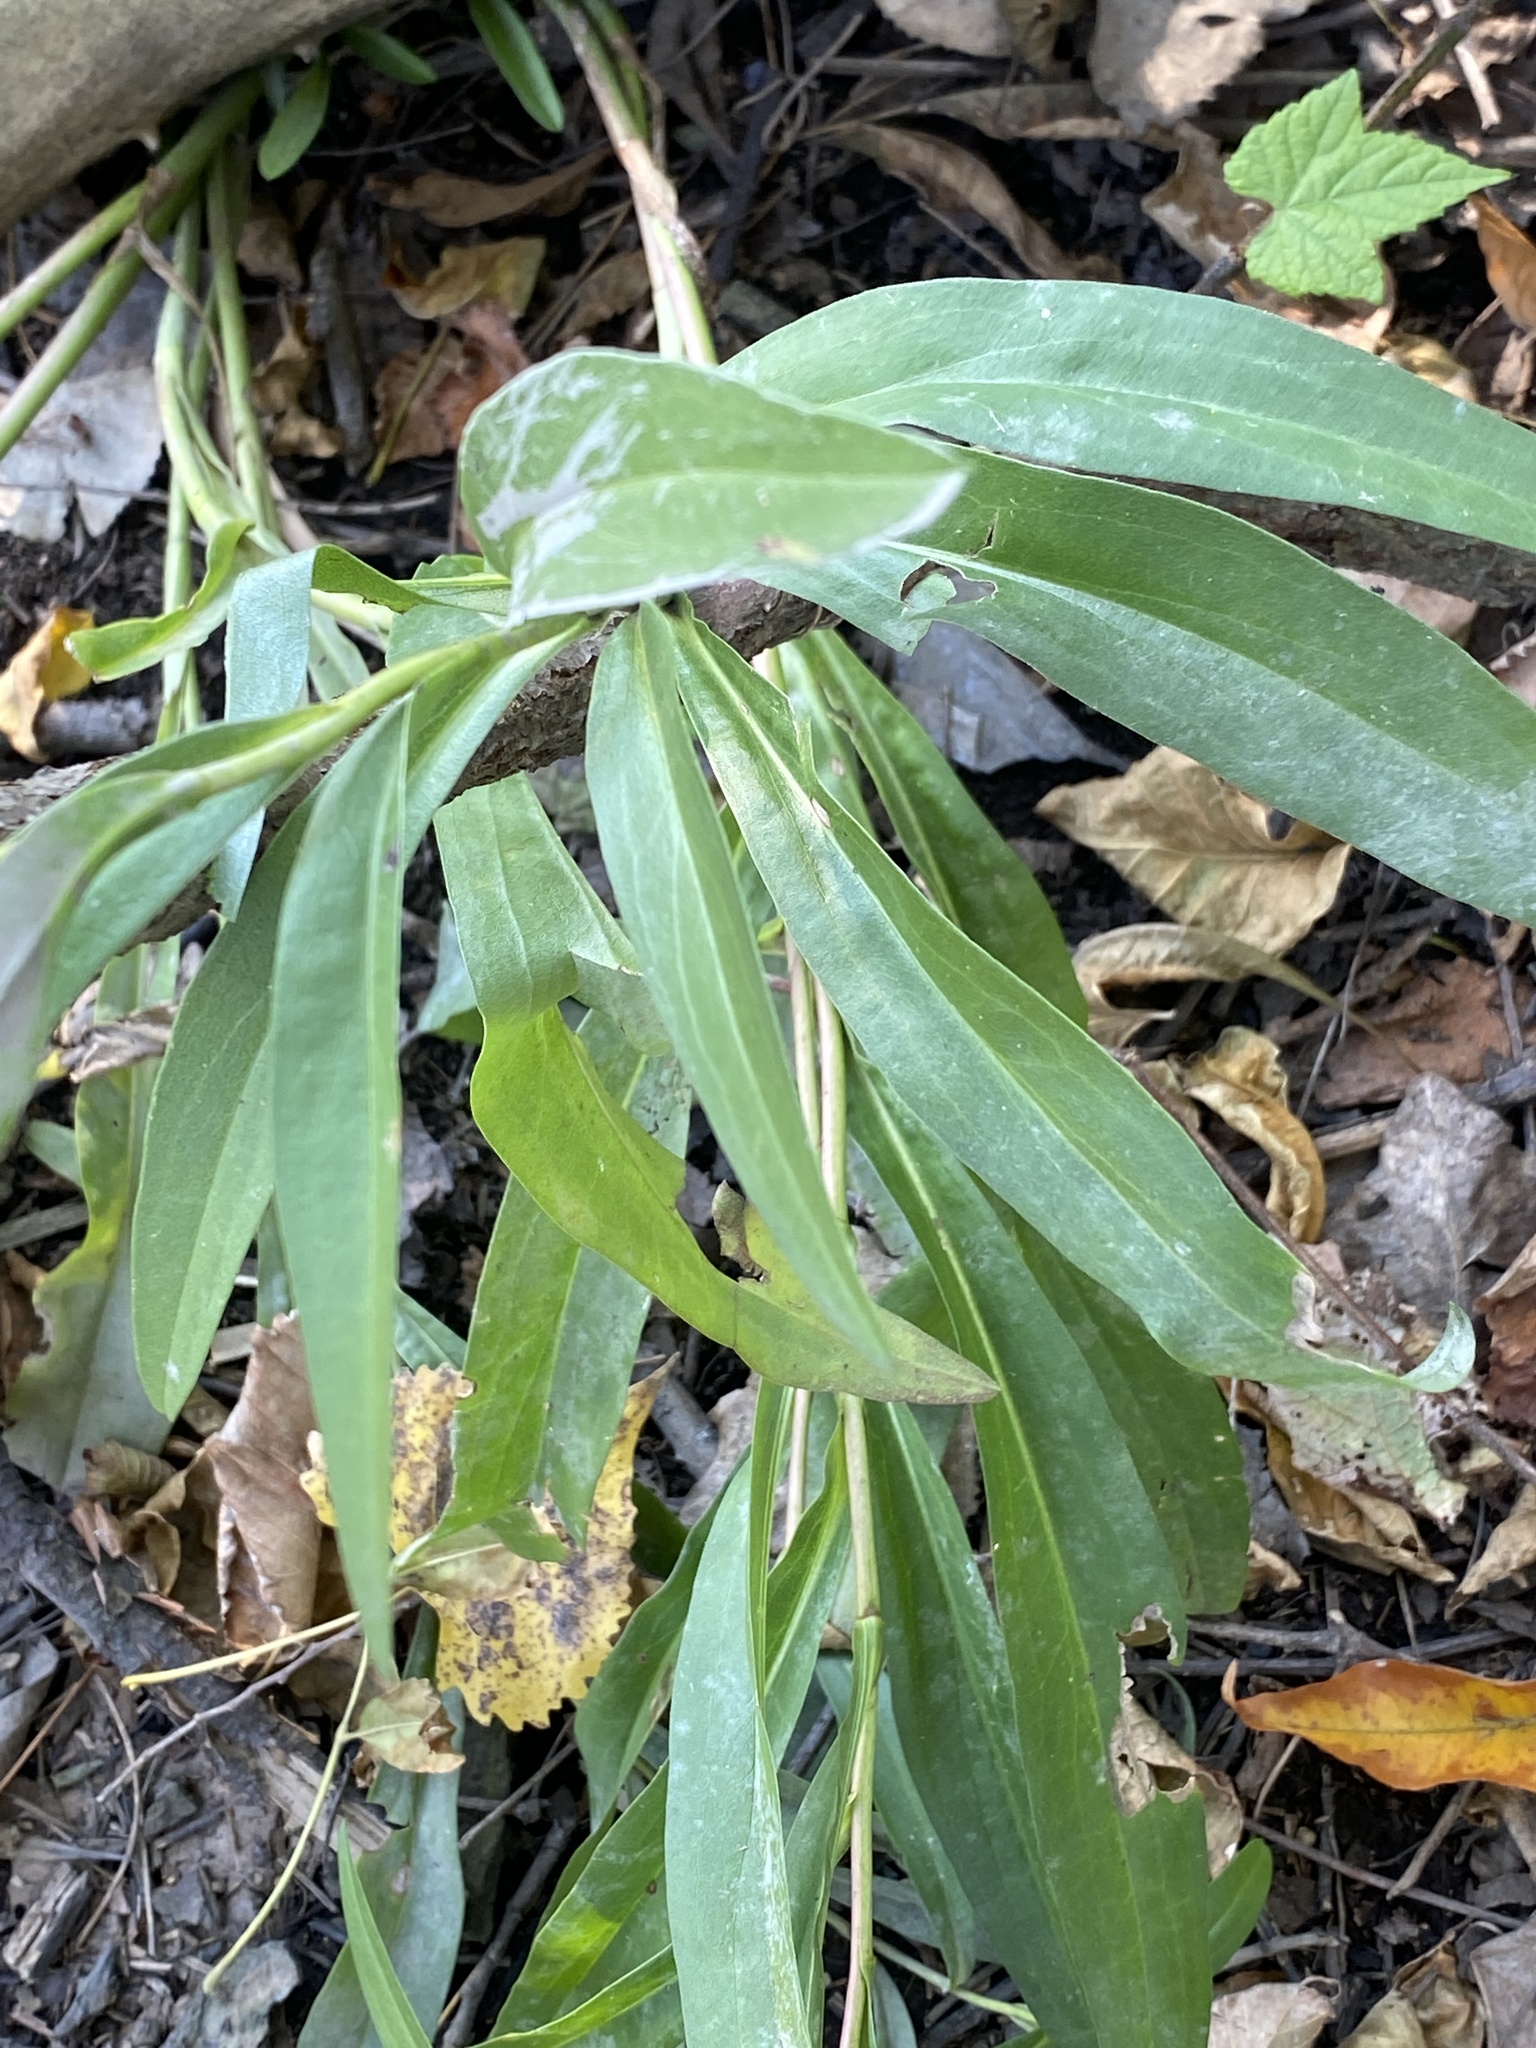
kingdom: Plantae
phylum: Tracheophyta
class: Magnoliopsida
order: Asterales
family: Asteraceae
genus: Solidago
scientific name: Solidago sempervirens
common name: Salt-marsh goldenrod
